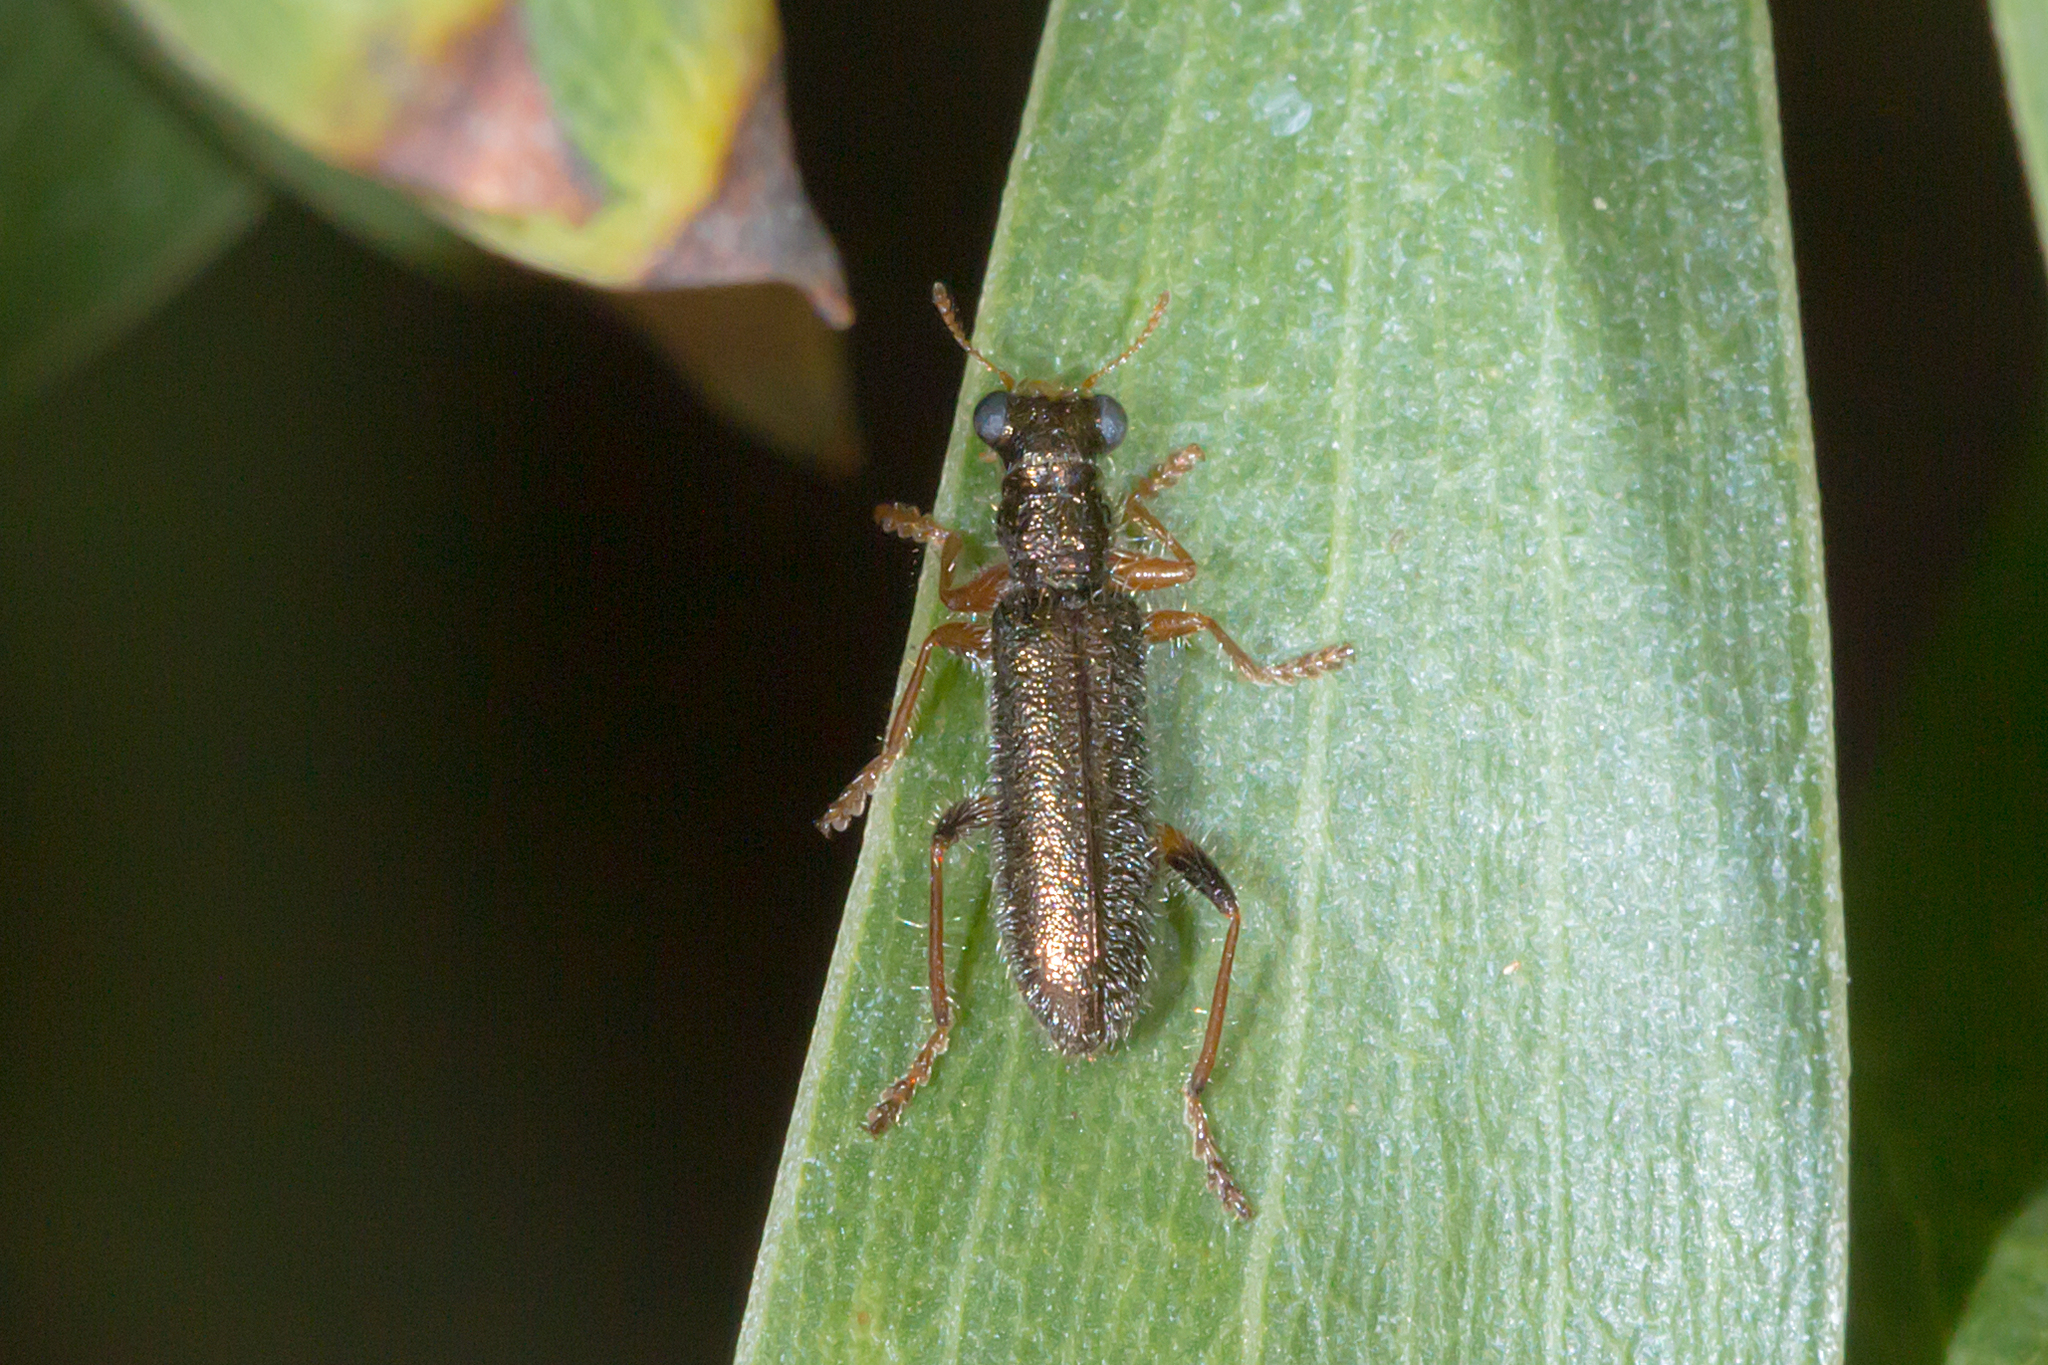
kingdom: Animalia
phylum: Arthropoda
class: Insecta
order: Coleoptera
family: Cleridae
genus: Lemidia
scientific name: Lemidia
